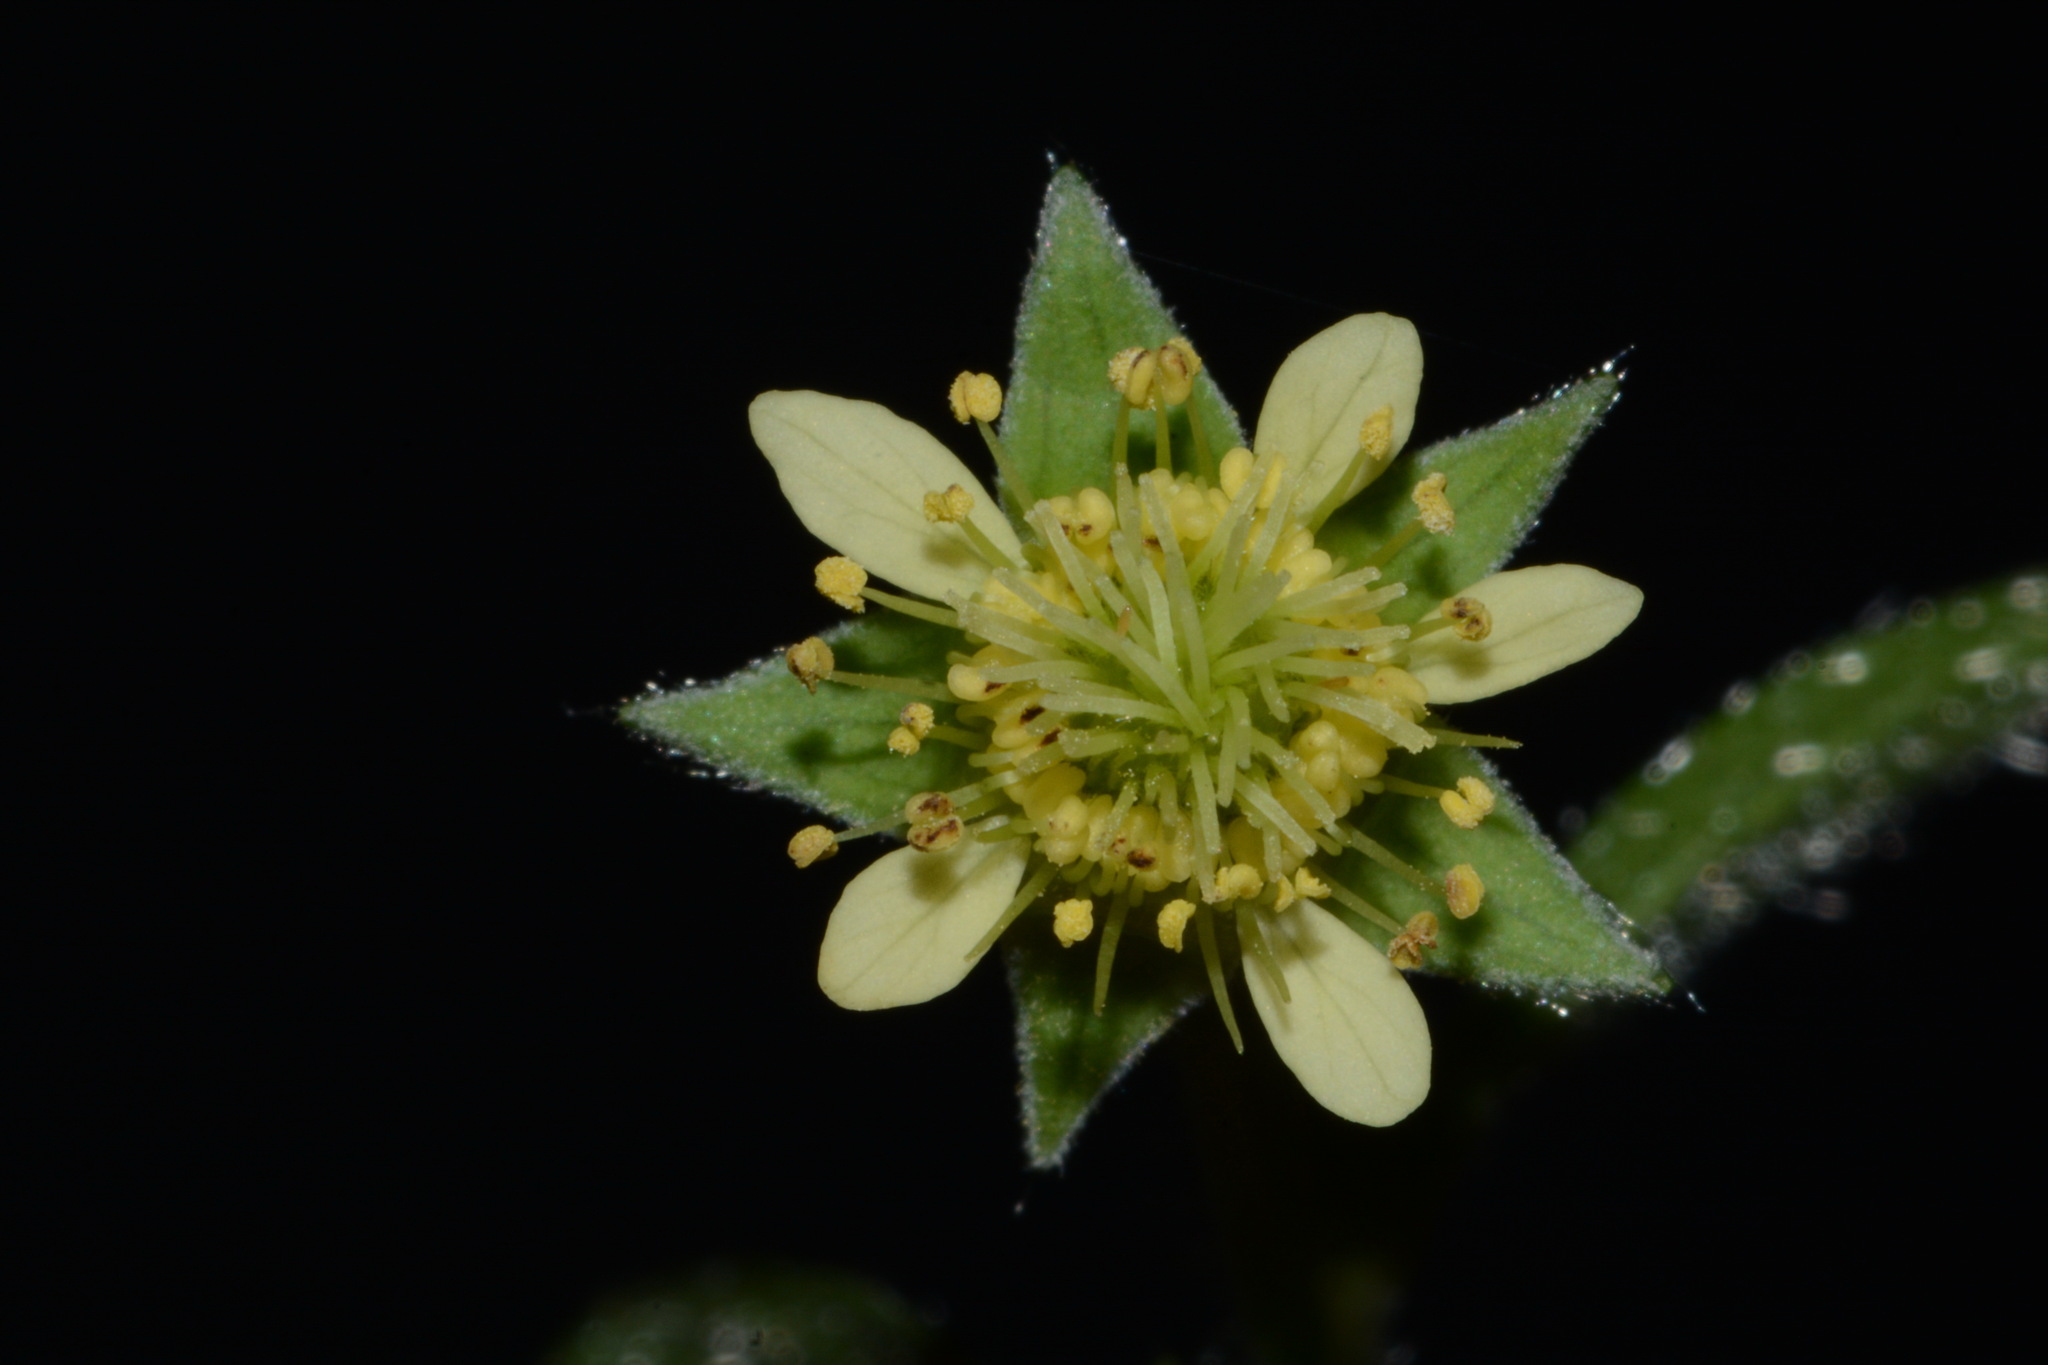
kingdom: Plantae
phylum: Tracheophyta
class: Magnoliopsida
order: Rosales
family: Rosaceae
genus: Geum
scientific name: Geum virginianum
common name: Cream avens
